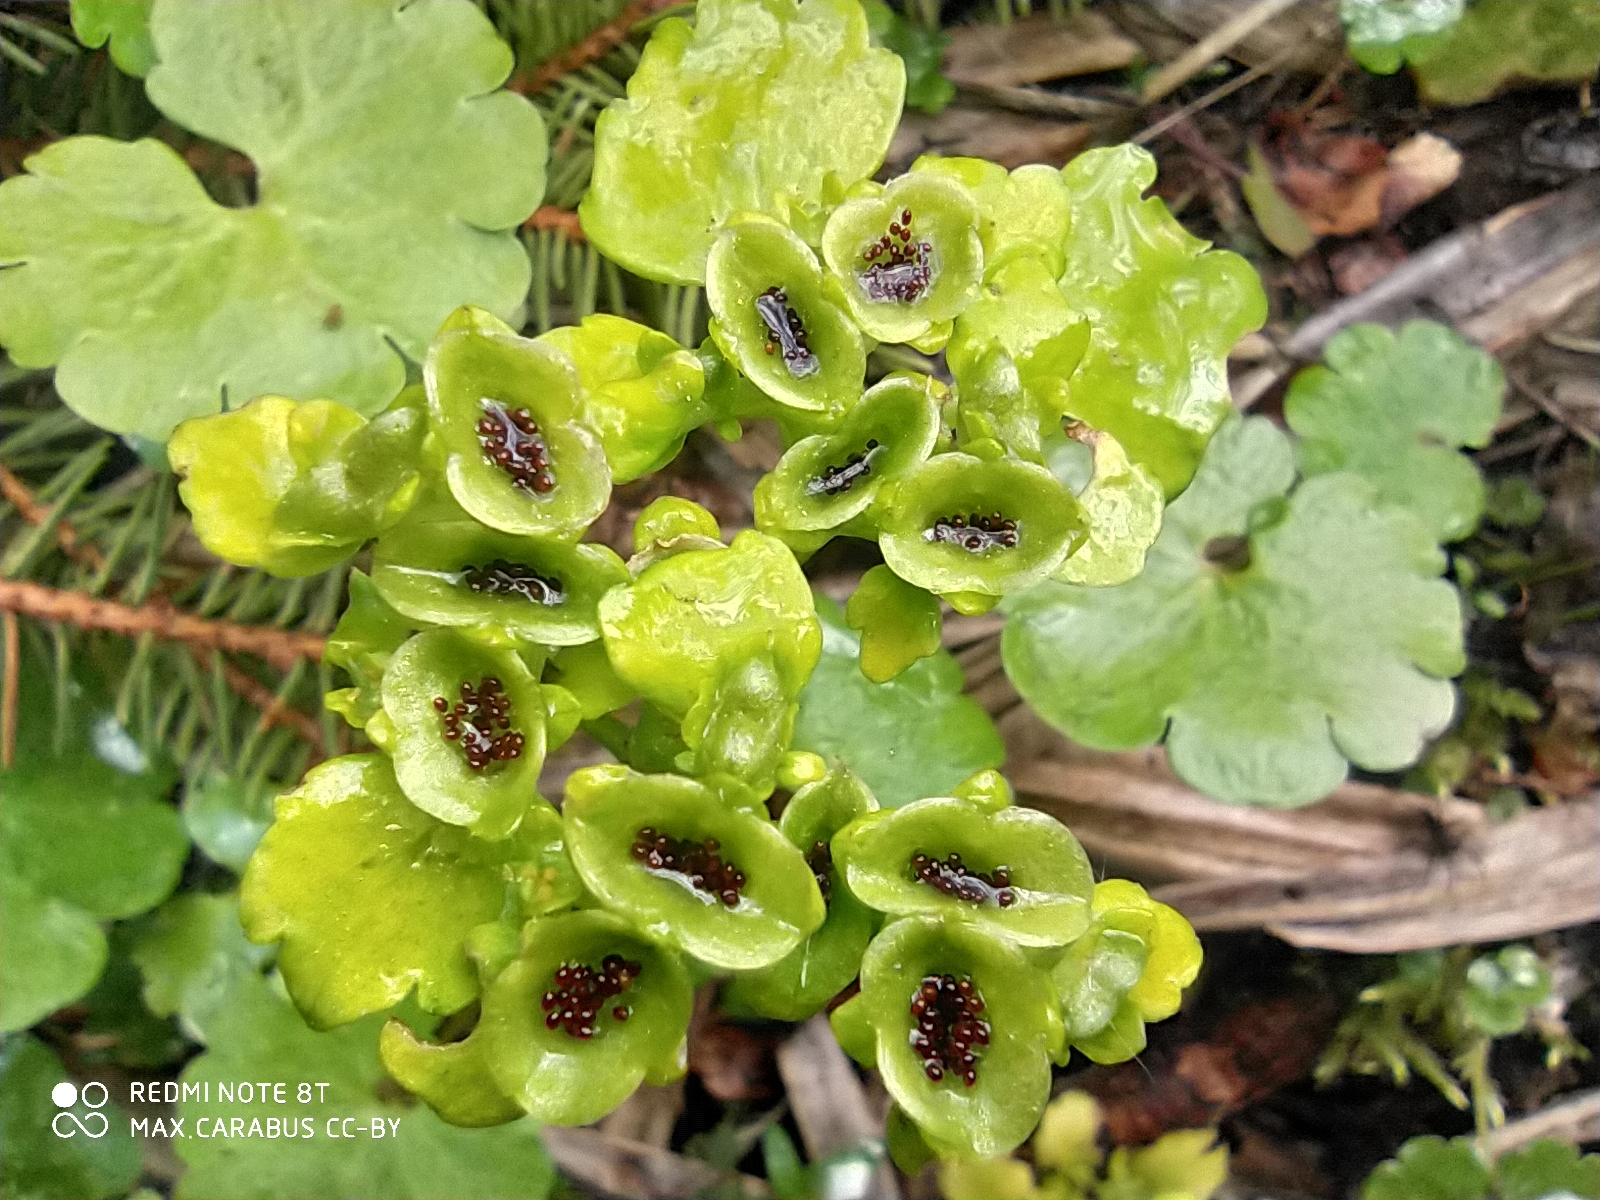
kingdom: Plantae
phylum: Tracheophyta
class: Magnoliopsida
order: Saxifragales
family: Saxifragaceae
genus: Chrysosplenium
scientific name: Chrysosplenium alternifolium
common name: Alternate-leaved golden-saxifrage
